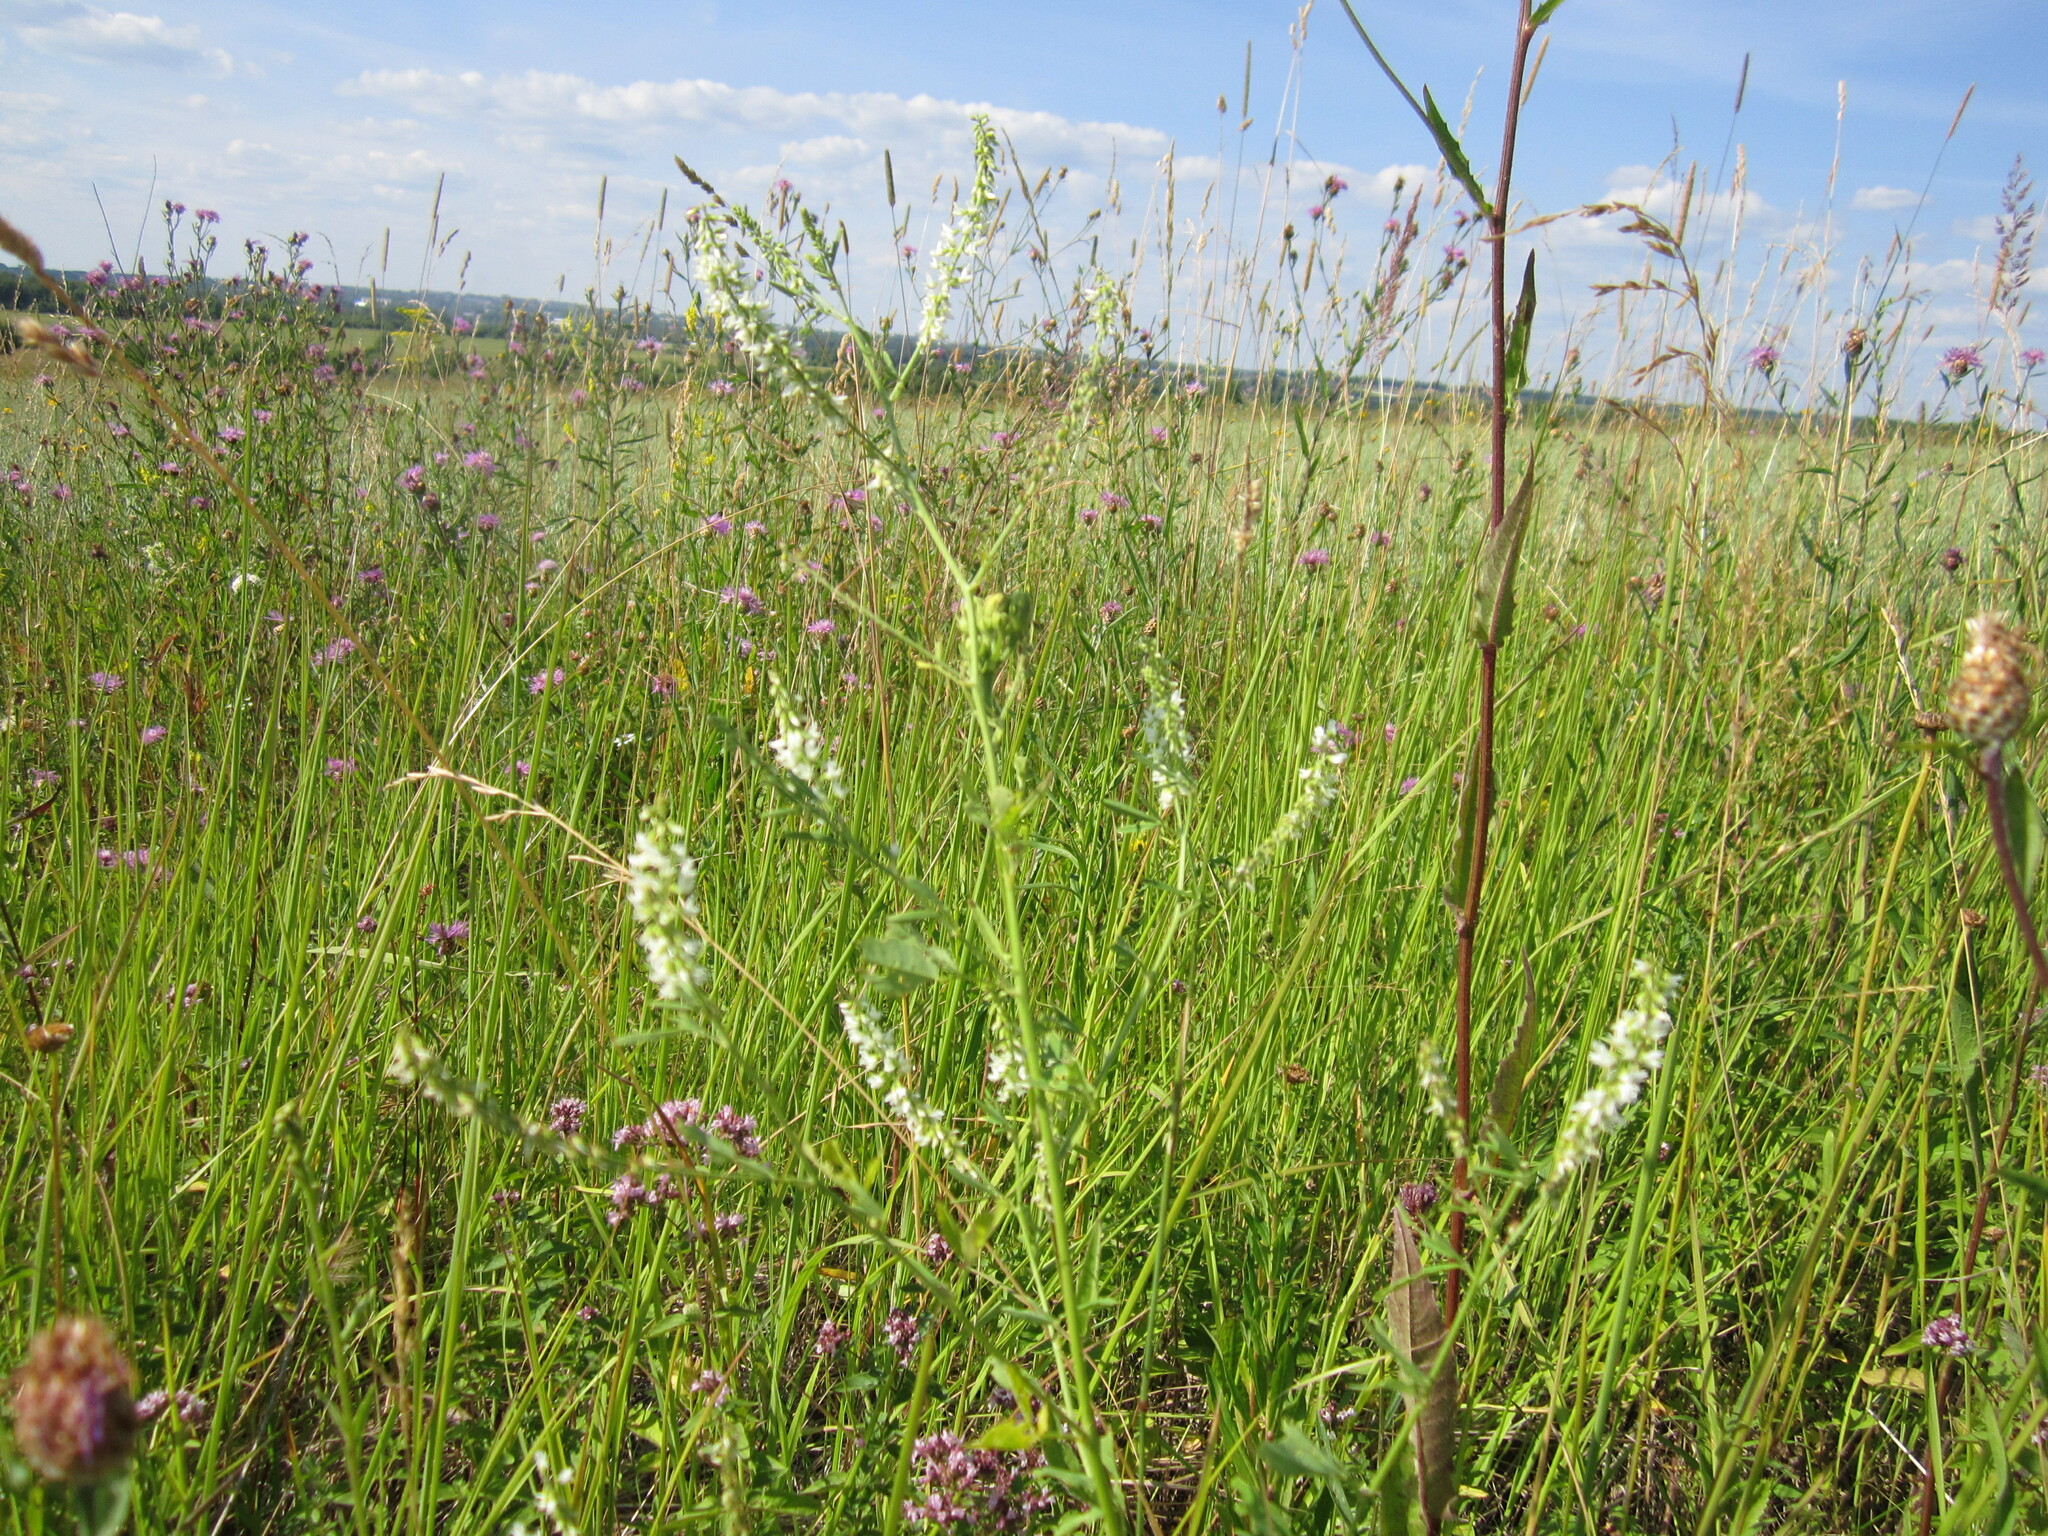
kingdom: Plantae
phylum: Tracheophyta
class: Magnoliopsida
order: Fabales
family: Fabaceae
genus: Melilotus
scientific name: Melilotus albus
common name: White melilot
